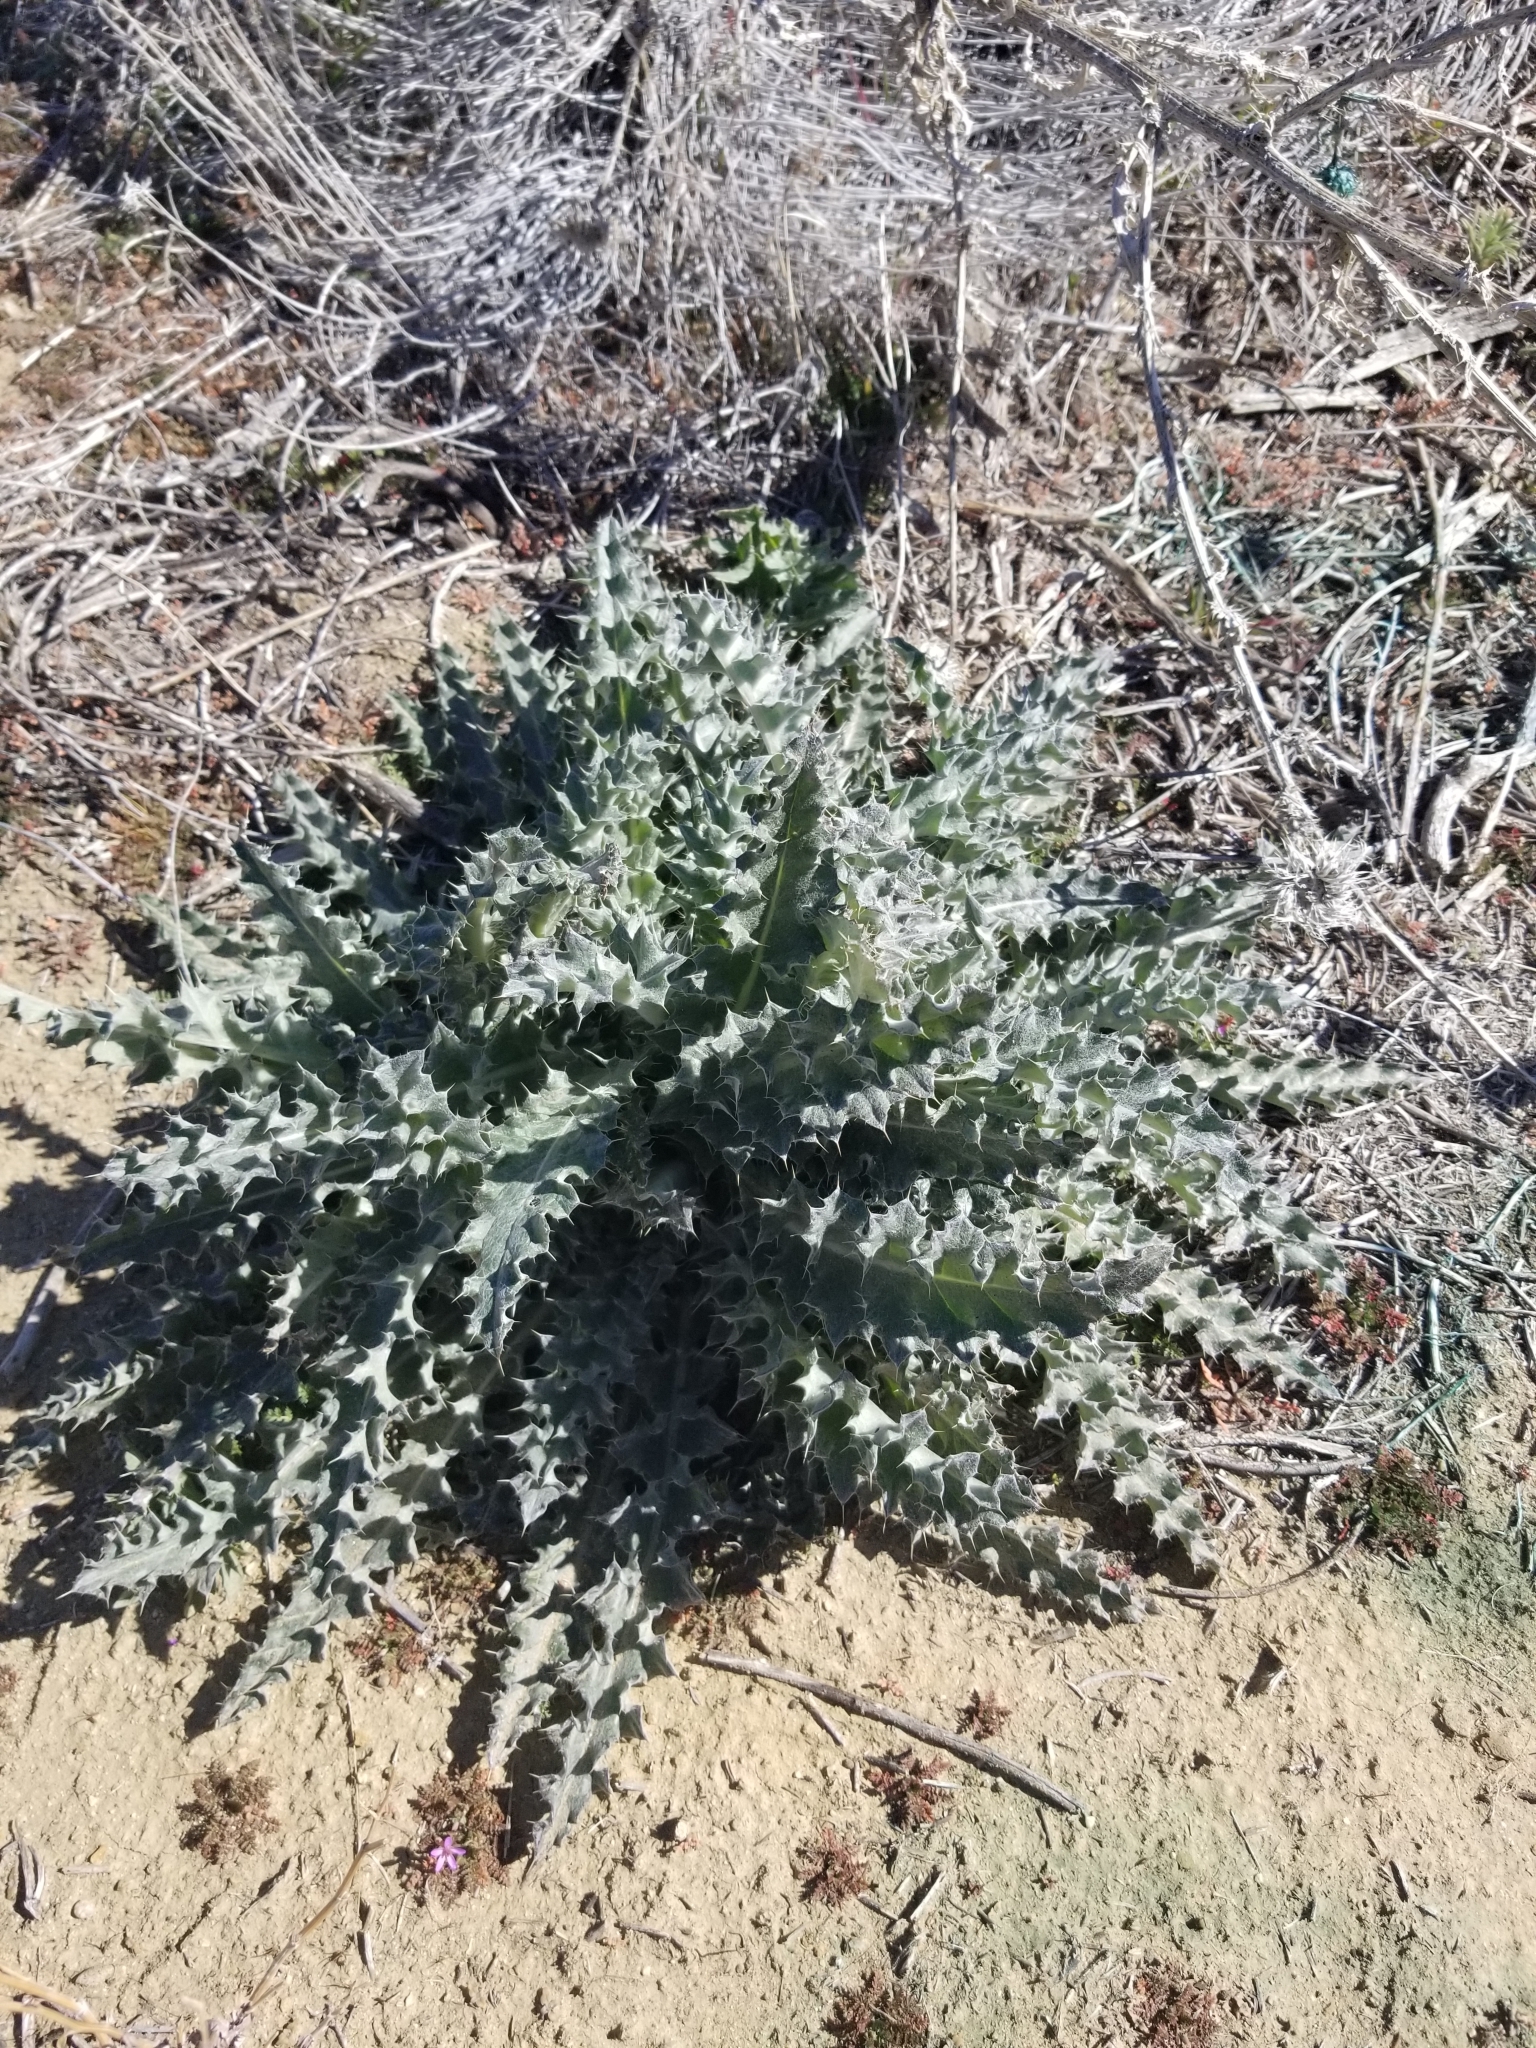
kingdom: Plantae
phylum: Tracheophyta
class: Magnoliopsida
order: Asterales
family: Asteraceae
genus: Cirsium
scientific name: Cirsium occidentale
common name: Western thistle
